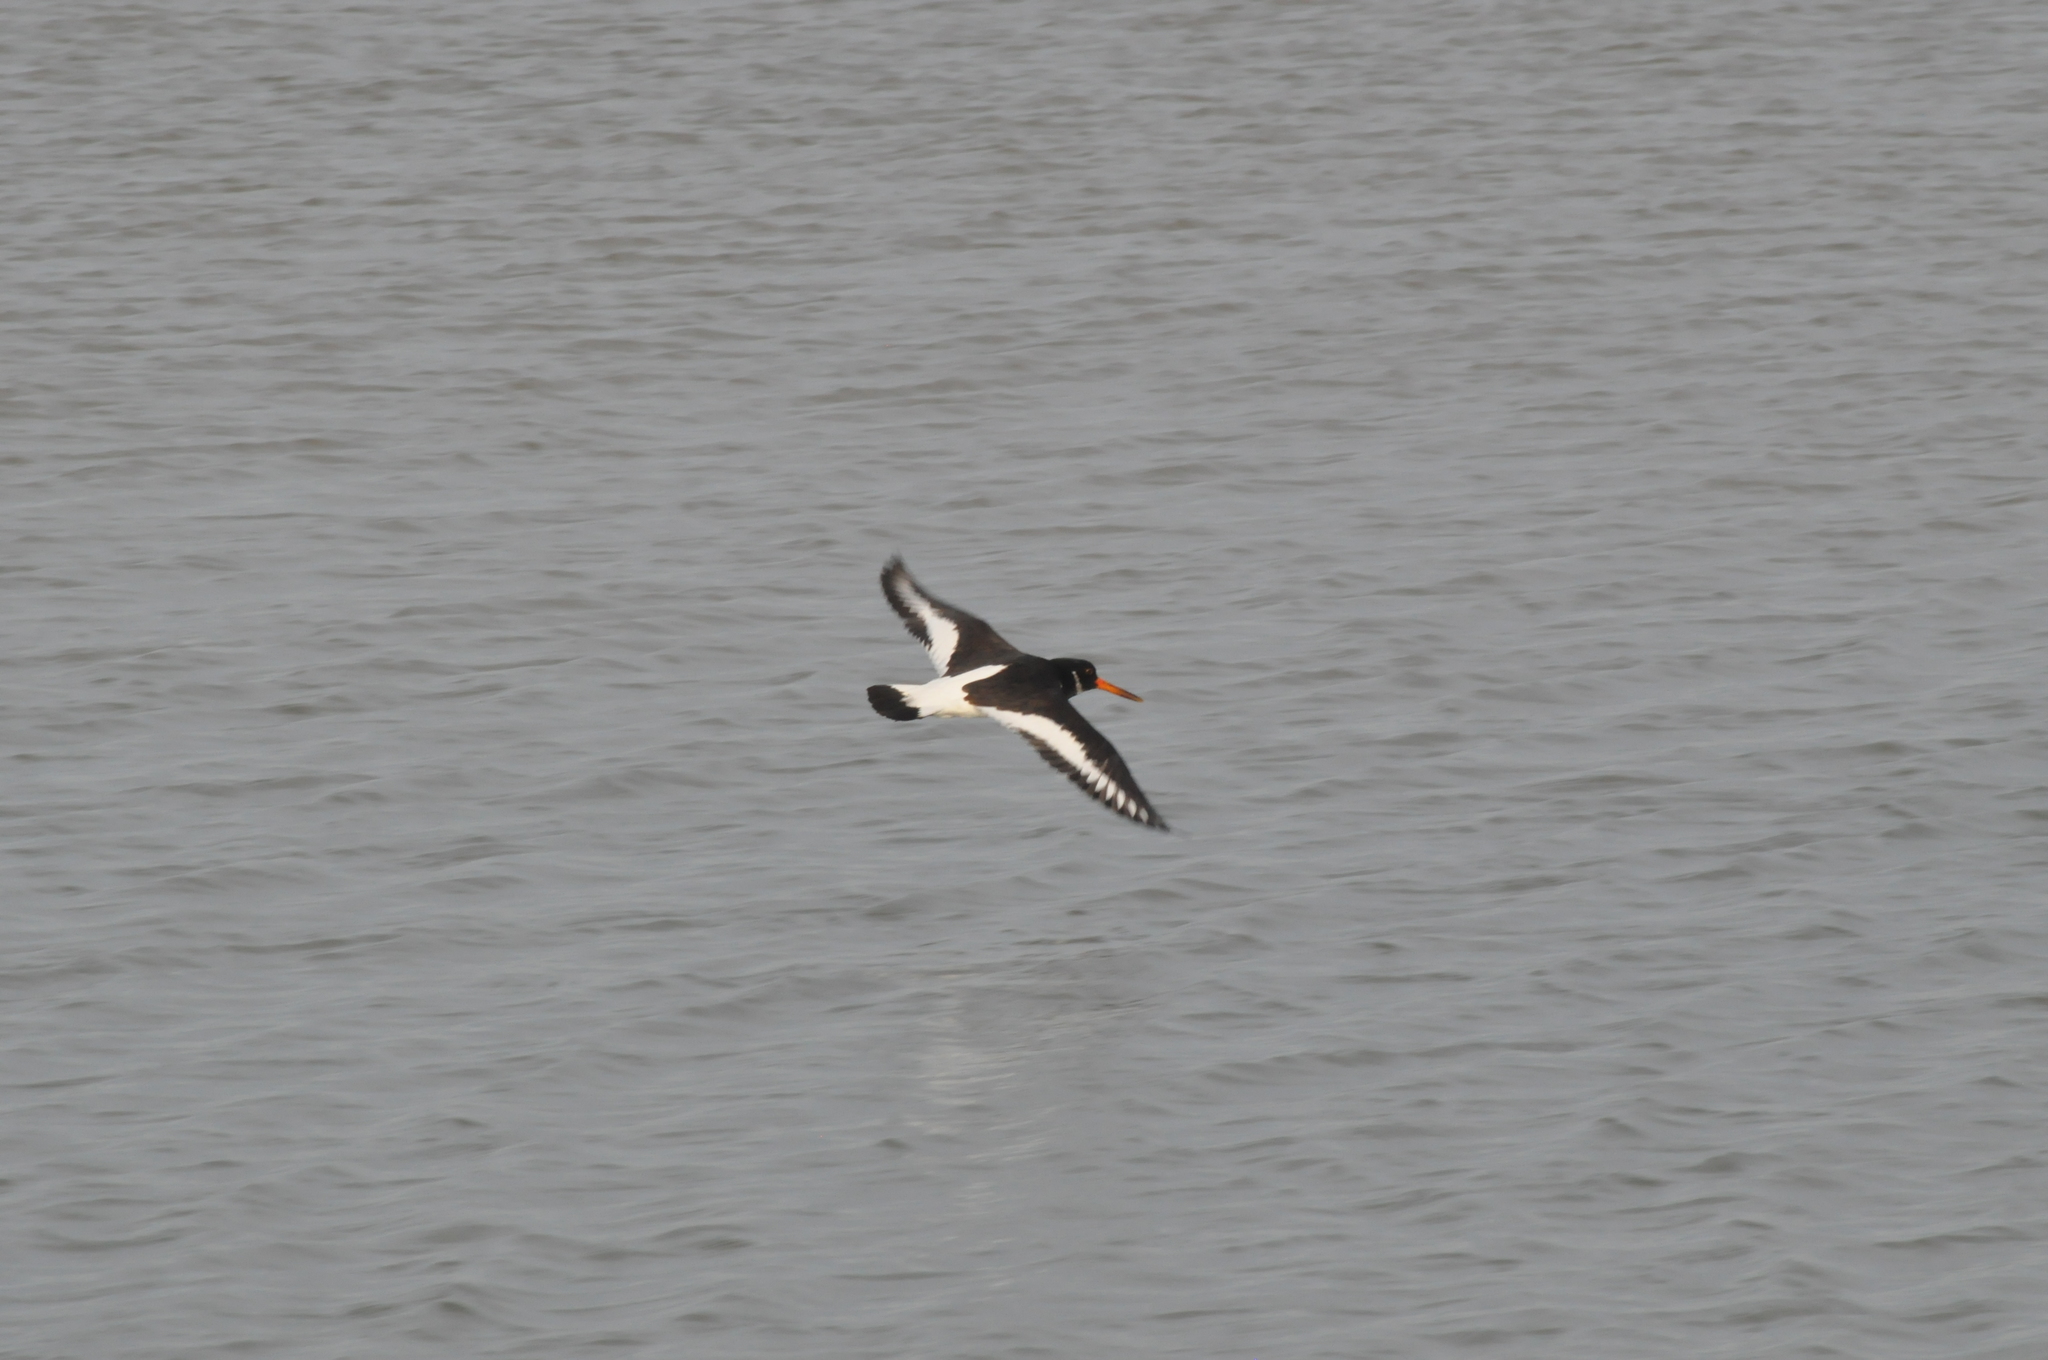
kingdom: Animalia
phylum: Chordata
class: Aves
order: Charadriiformes
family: Haematopodidae
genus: Haematopus
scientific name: Haematopus ostralegus
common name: Eurasian oystercatcher
